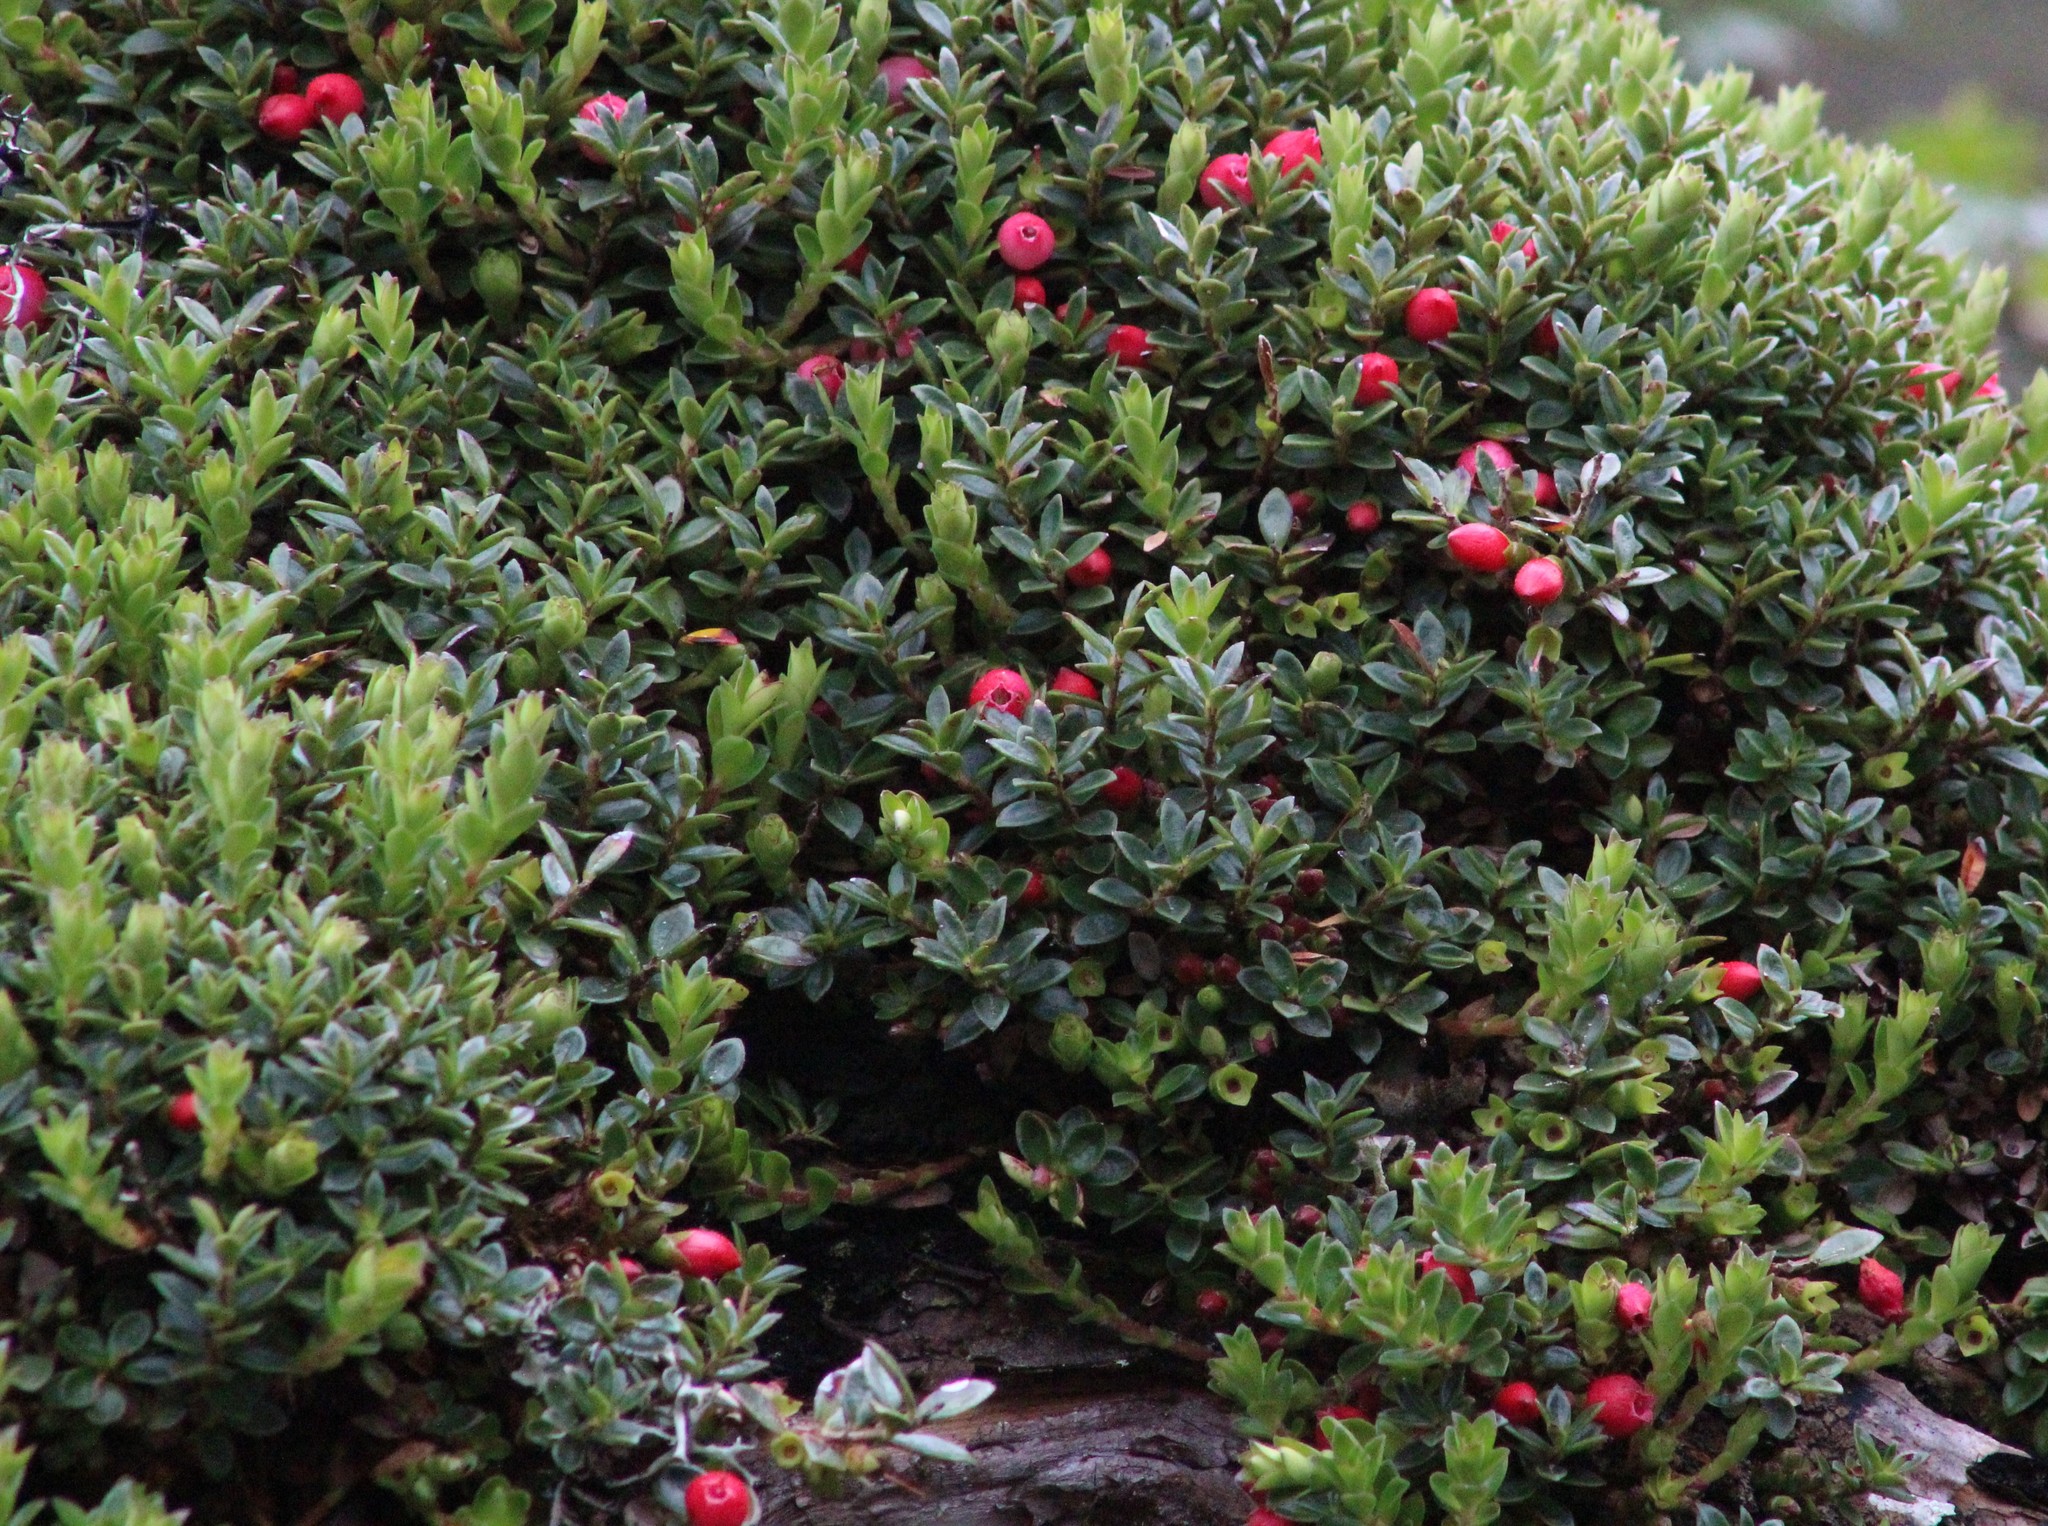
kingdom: Plantae
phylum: Tracheophyta
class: Magnoliopsida
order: Ericales
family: Ericaceae
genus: Disterigma
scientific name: Disterigma empetrifolium
